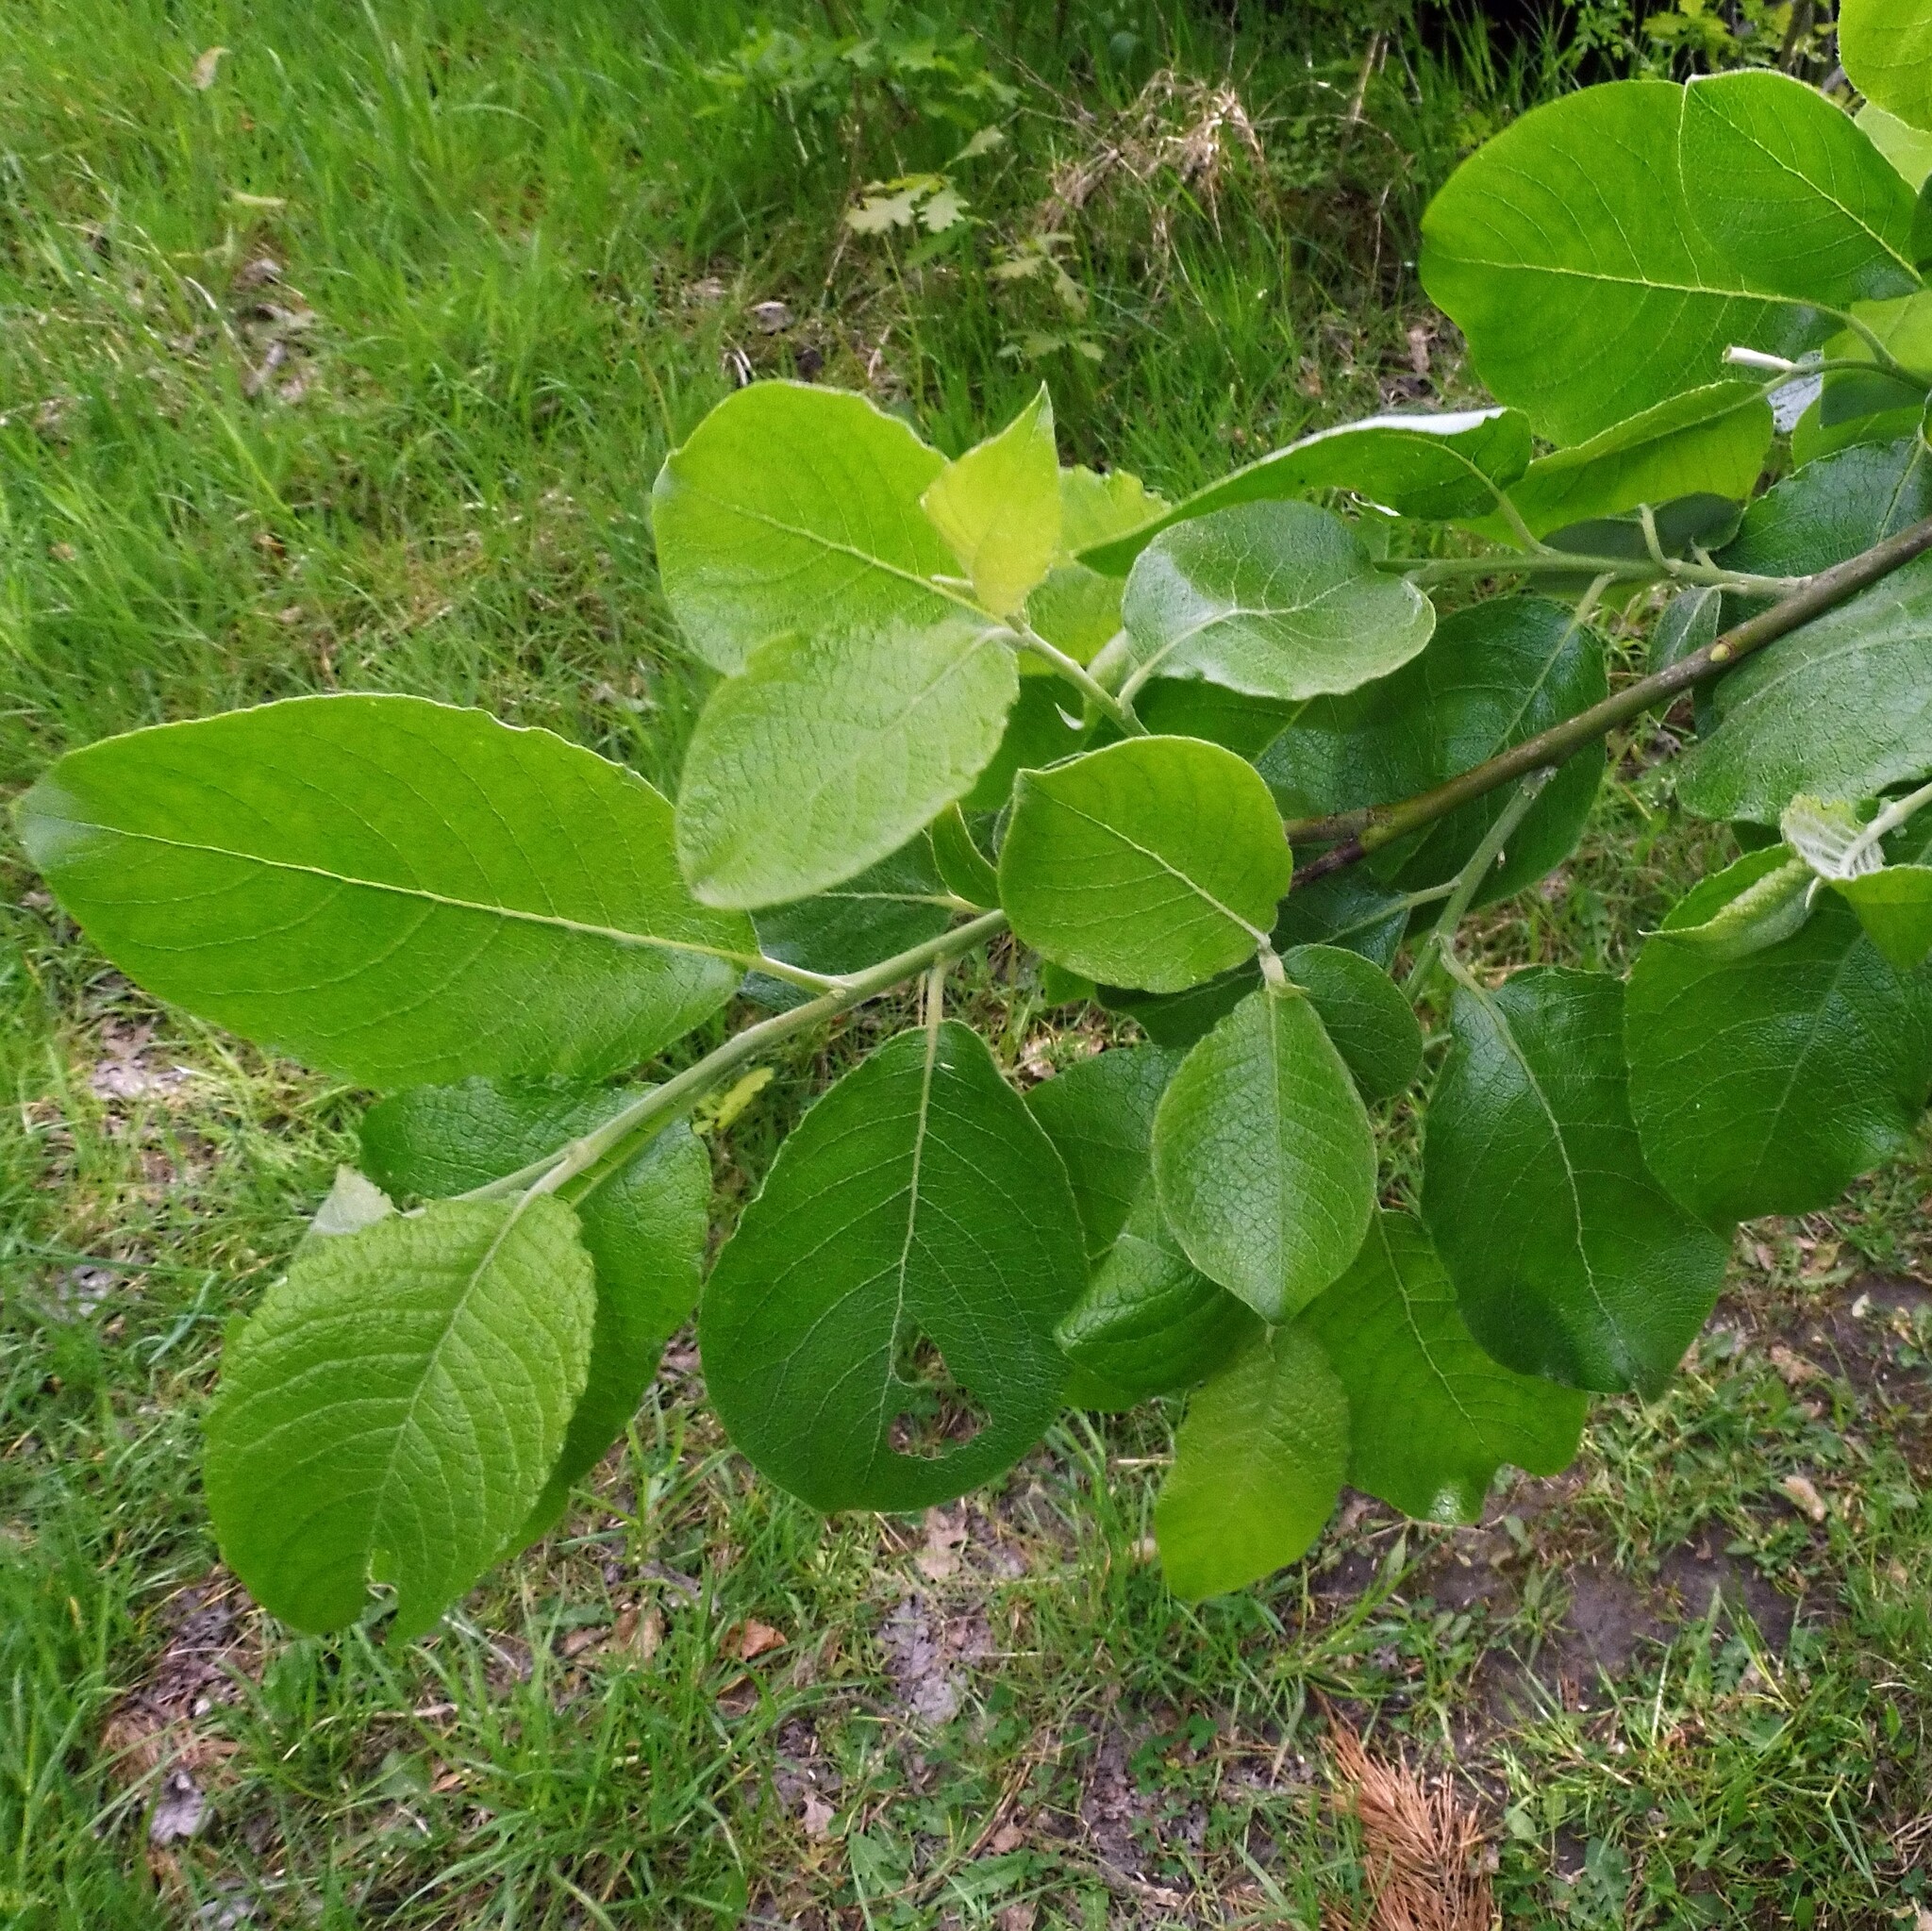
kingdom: Plantae
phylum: Tracheophyta
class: Magnoliopsida
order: Malpighiales
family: Salicaceae
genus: Salix
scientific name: Salix caprea
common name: Goat willow
